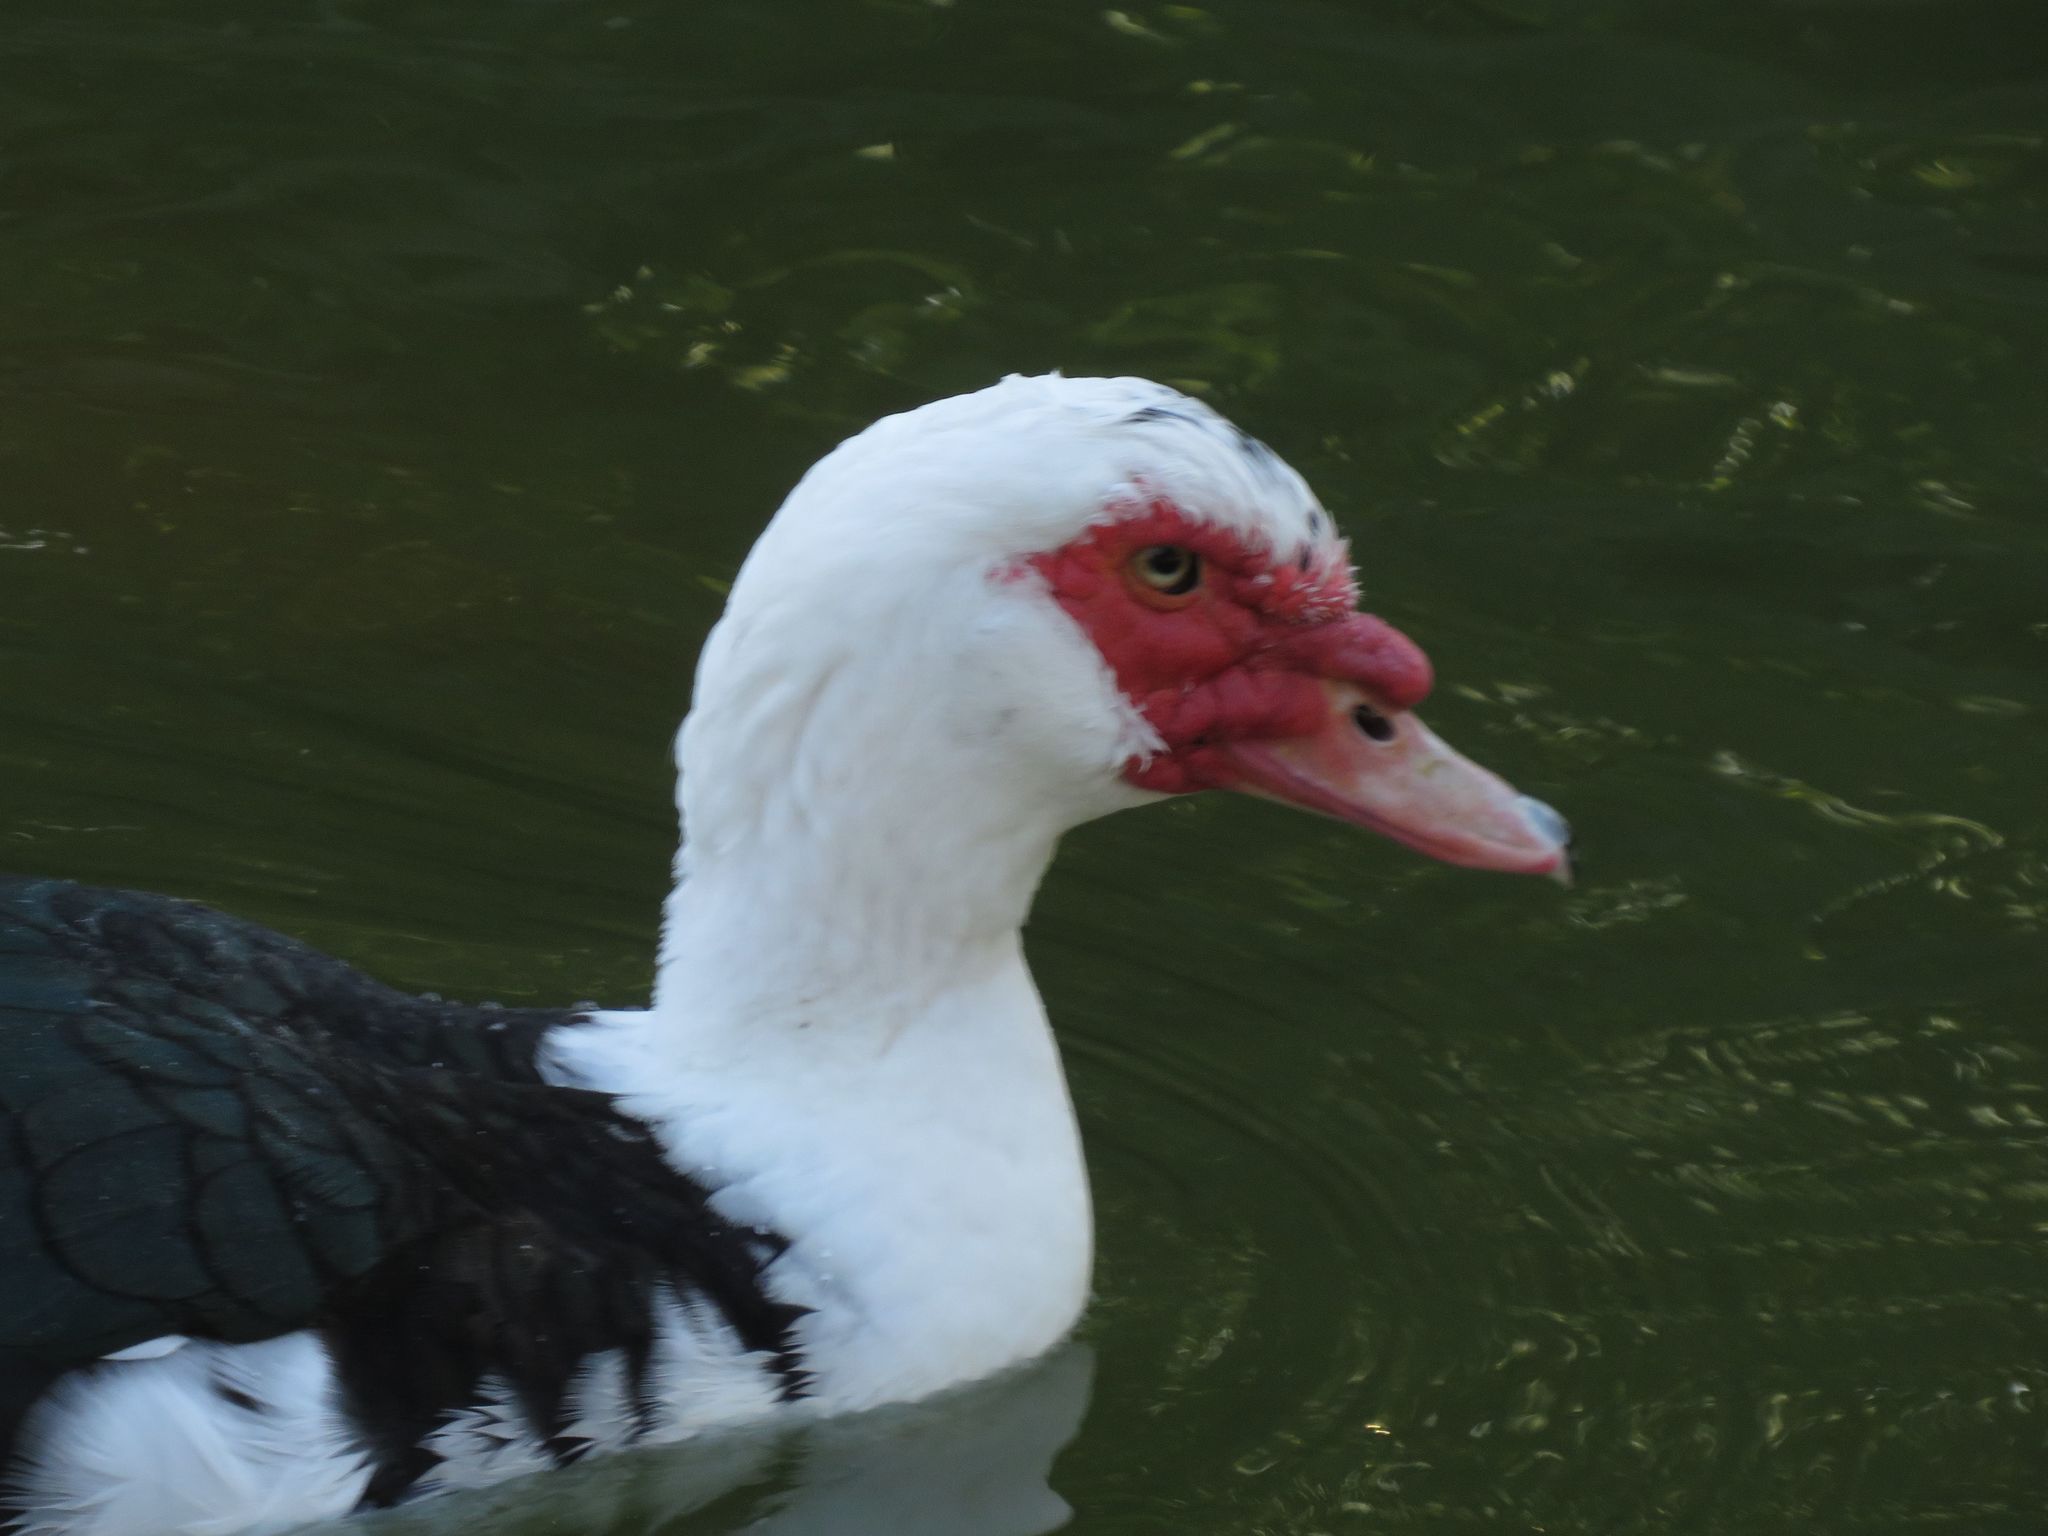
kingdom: Animalia
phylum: Chordata
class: Aves
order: Anseriformes
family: Anatidae
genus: Cairina
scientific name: Cairina moschata
